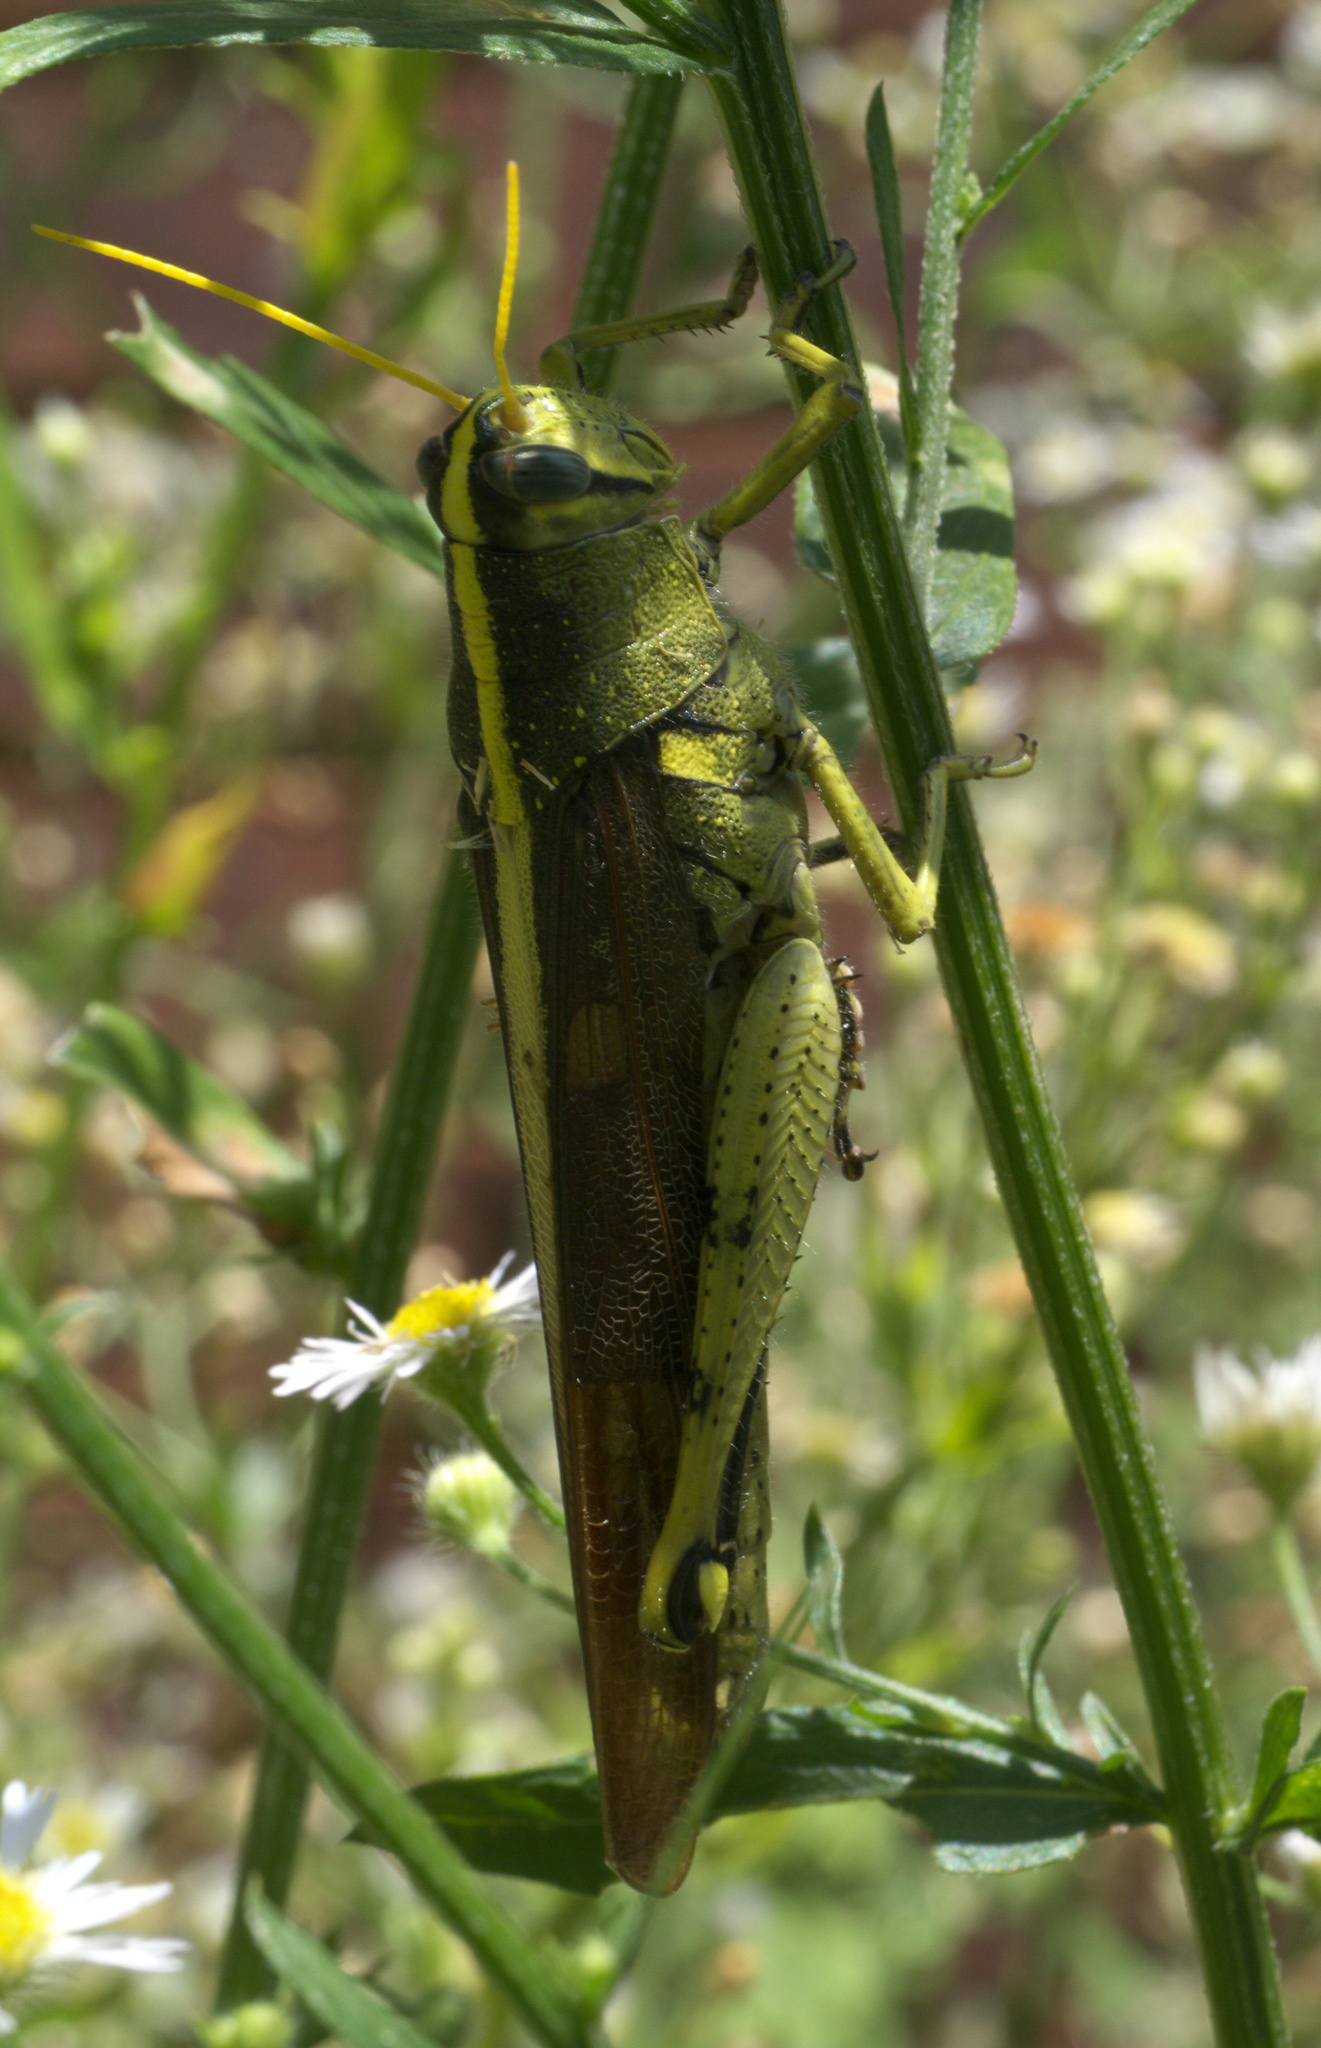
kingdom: Animalia
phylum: Arthropoda
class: Insecta
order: Orthoptera
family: Acrididae
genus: Schistocerca
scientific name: Schistocerca obscura
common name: Obscure bird grasshopper
